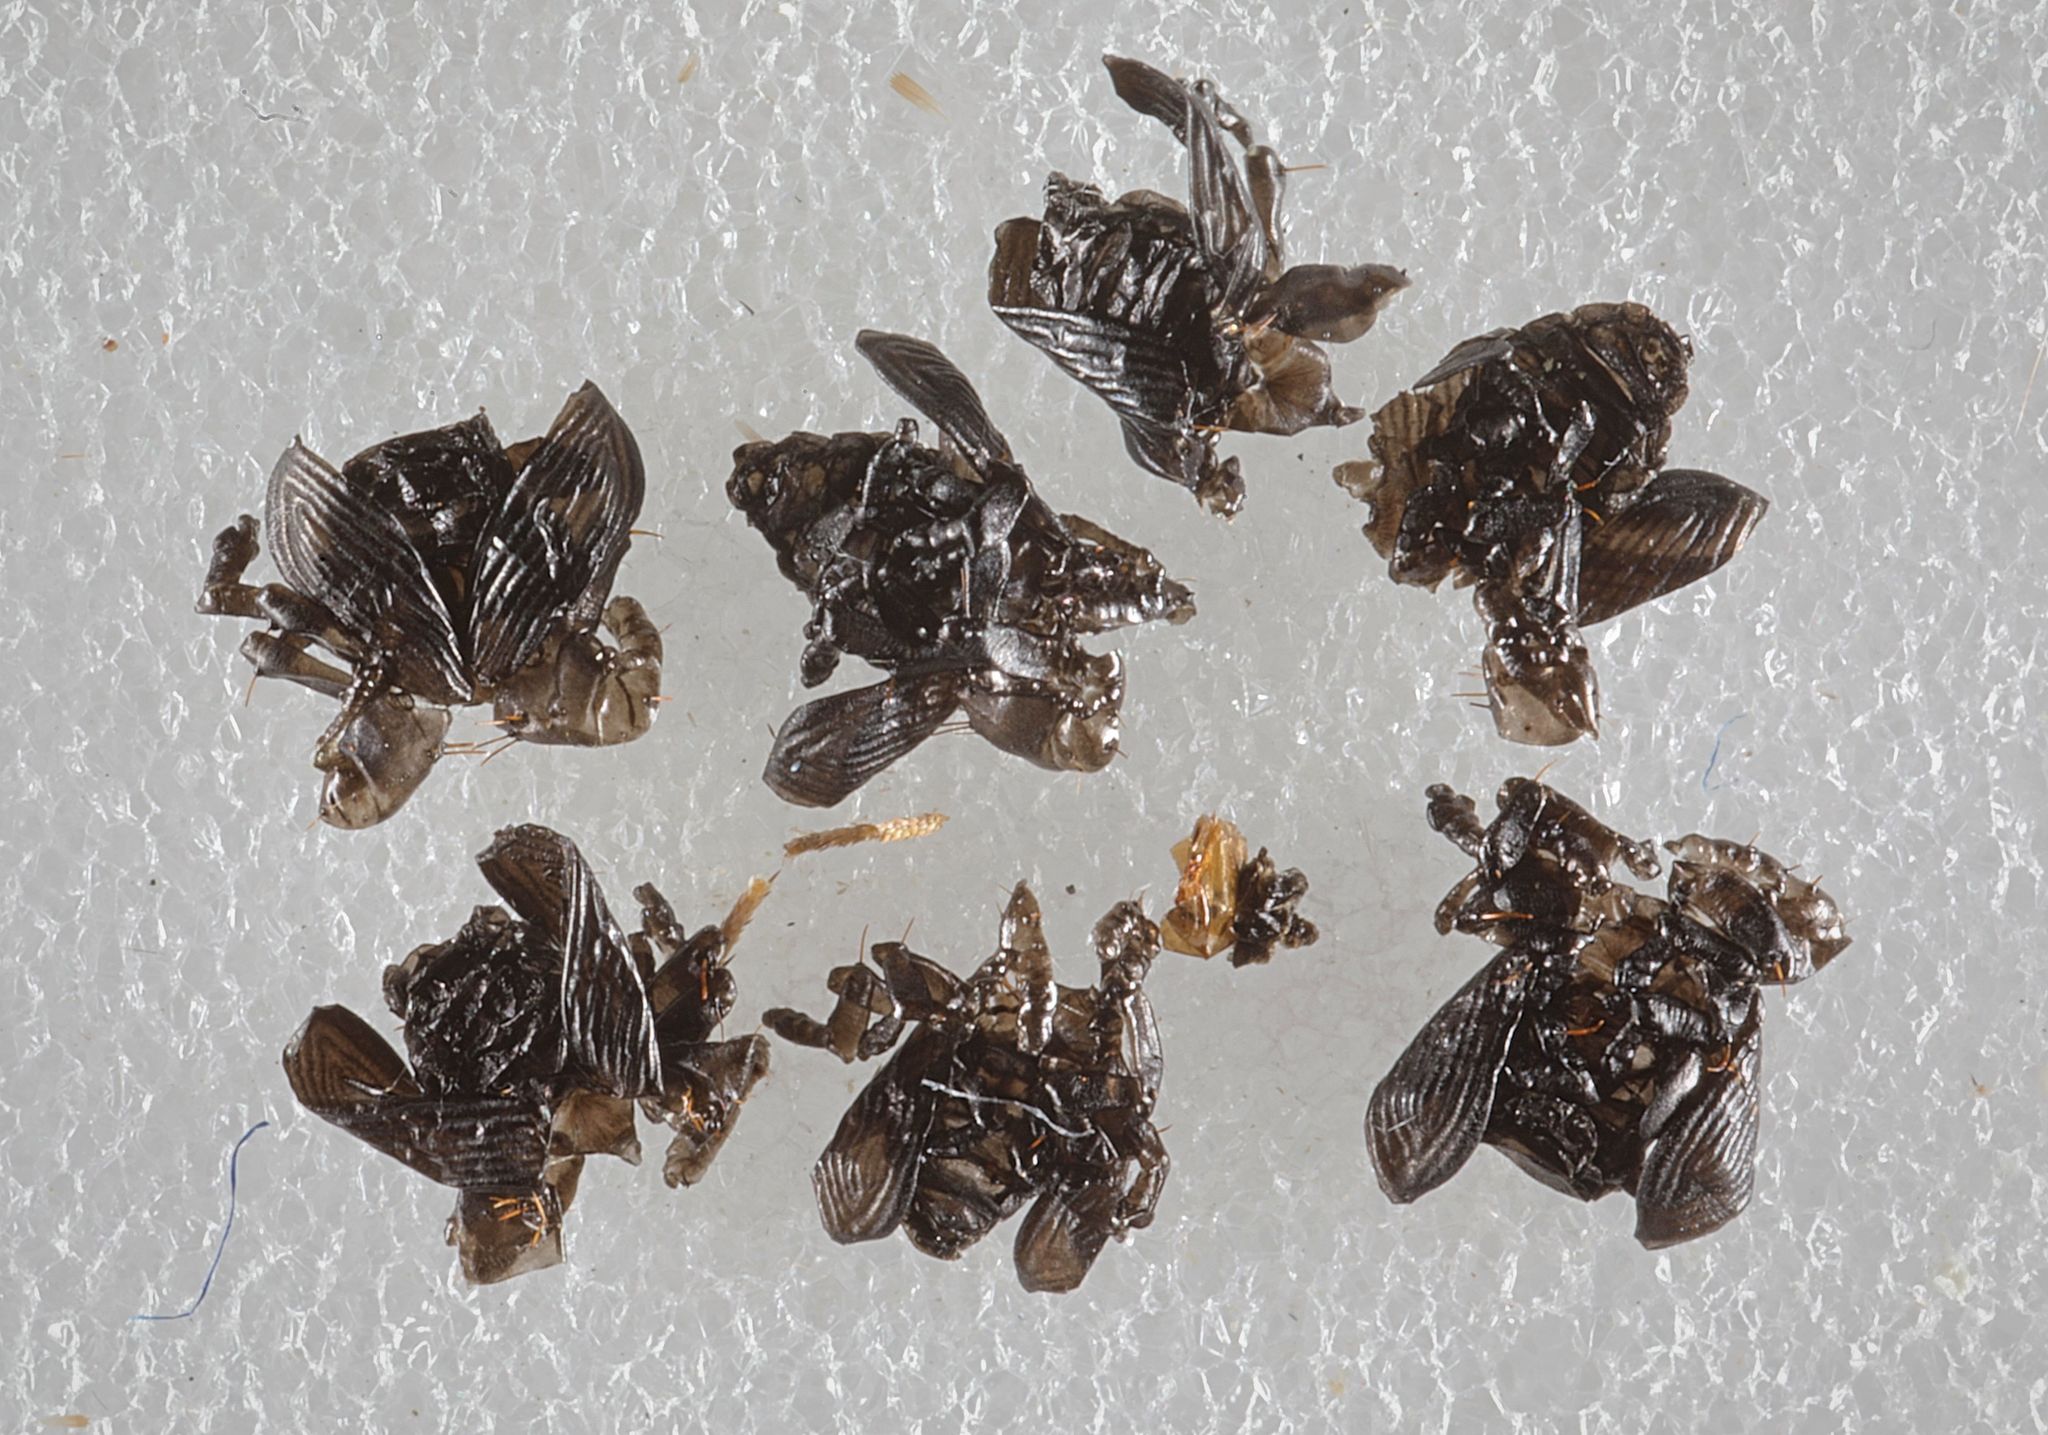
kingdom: Animalia
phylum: Arthropoda
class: Insecta
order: Coleoptera
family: Curculionidae
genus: Isochnus
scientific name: Isochnus sequensi
